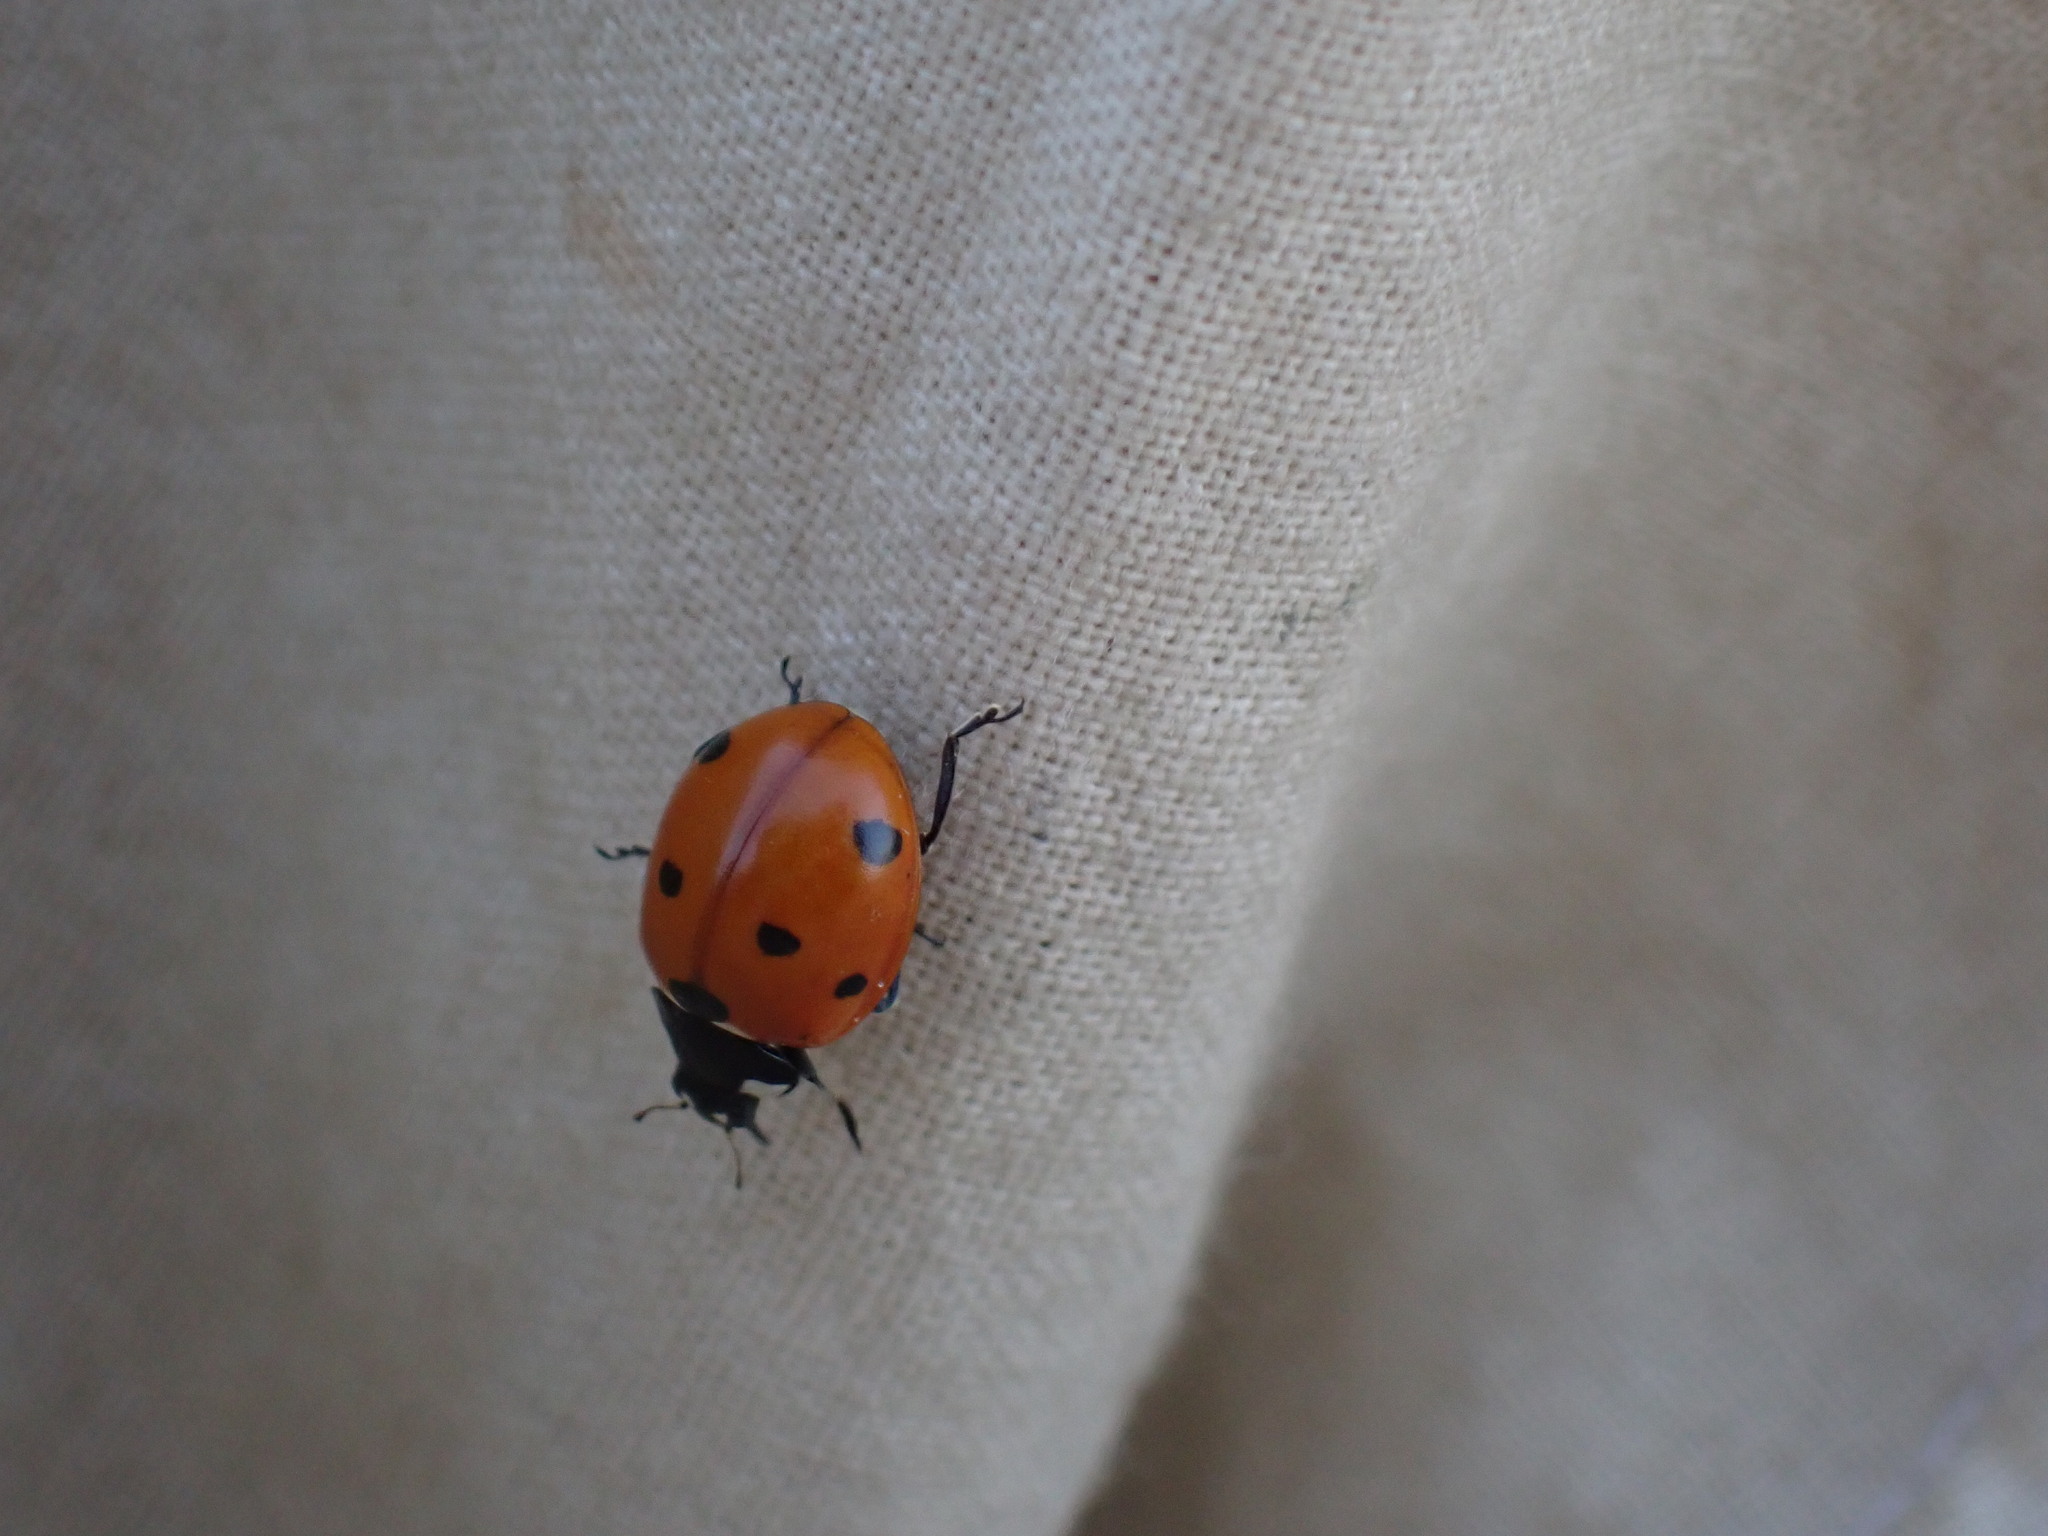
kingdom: Animalia
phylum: Arthropoda
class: Insecta
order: Coleoptera
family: Coccinellidae
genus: Coccinella
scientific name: Coccinella septempunctata
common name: Sevenspotted lady beetle
